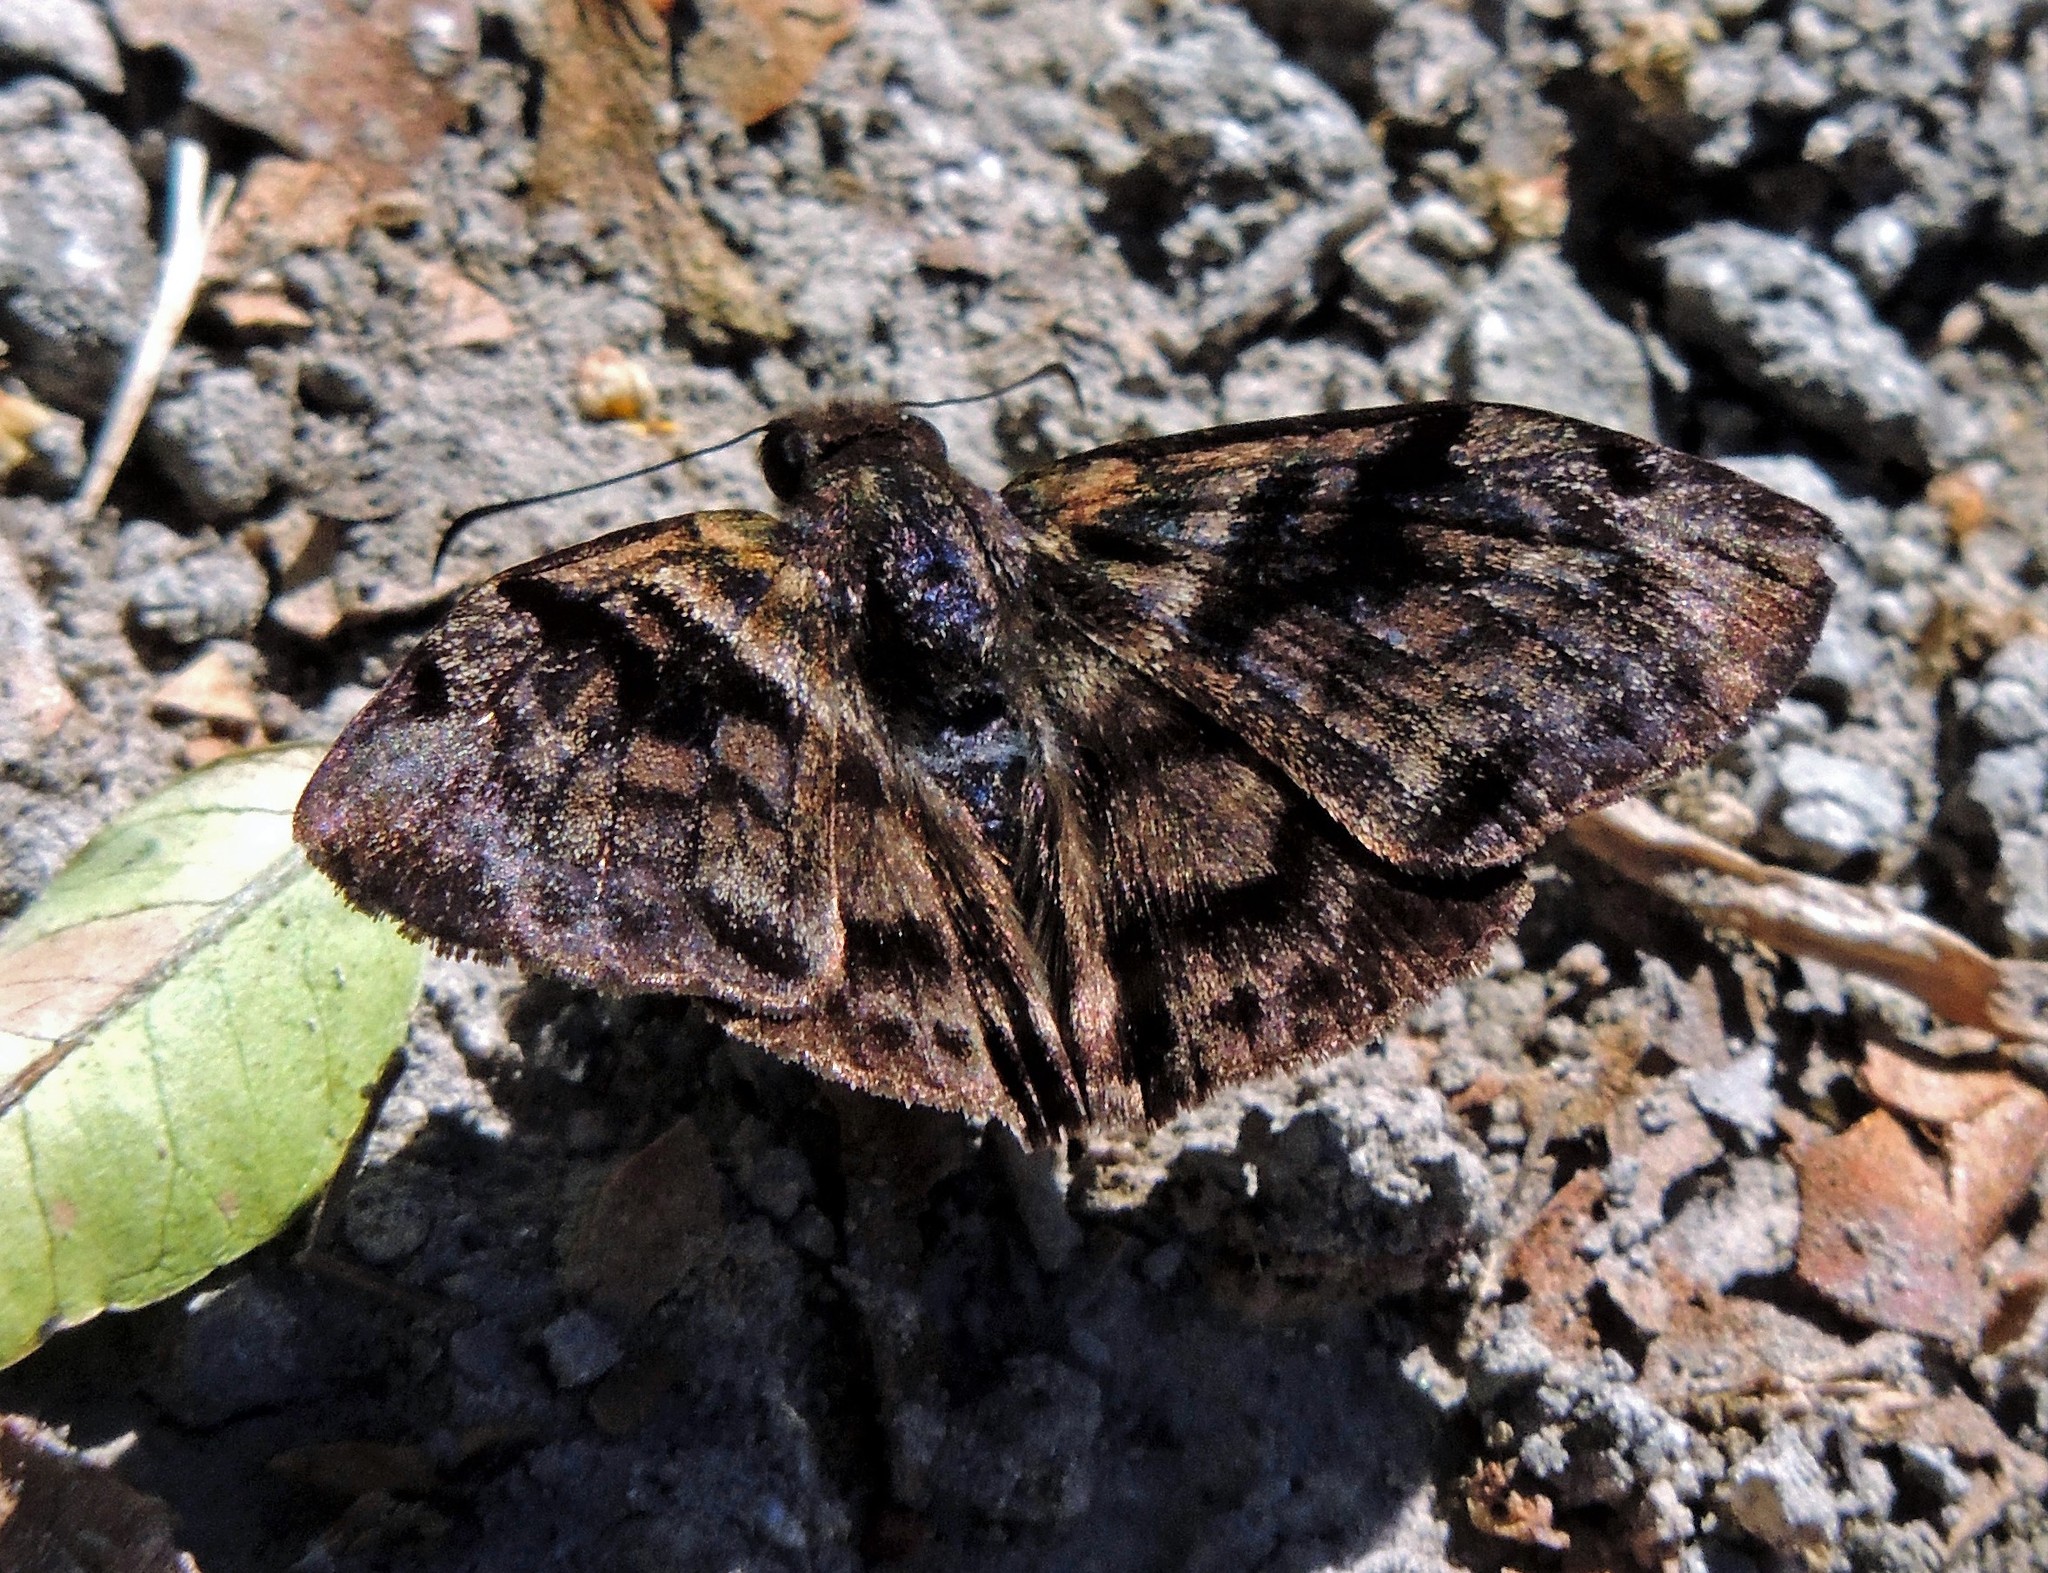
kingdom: Animalia
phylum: Arthropoda
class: Insecta
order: Lepidoptera
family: Hesperiidae
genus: Ebrietas
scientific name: Ebrietas anacreon
